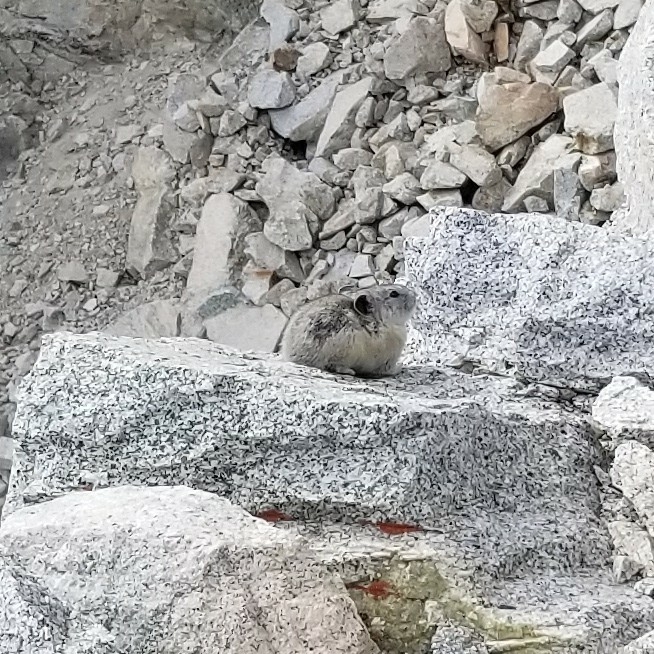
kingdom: Animalia
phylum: Chordata
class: Mammalia
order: Lagomorpha
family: Ochotonidae
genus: Ochotona
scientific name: Ochotona princeps
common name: American pika
